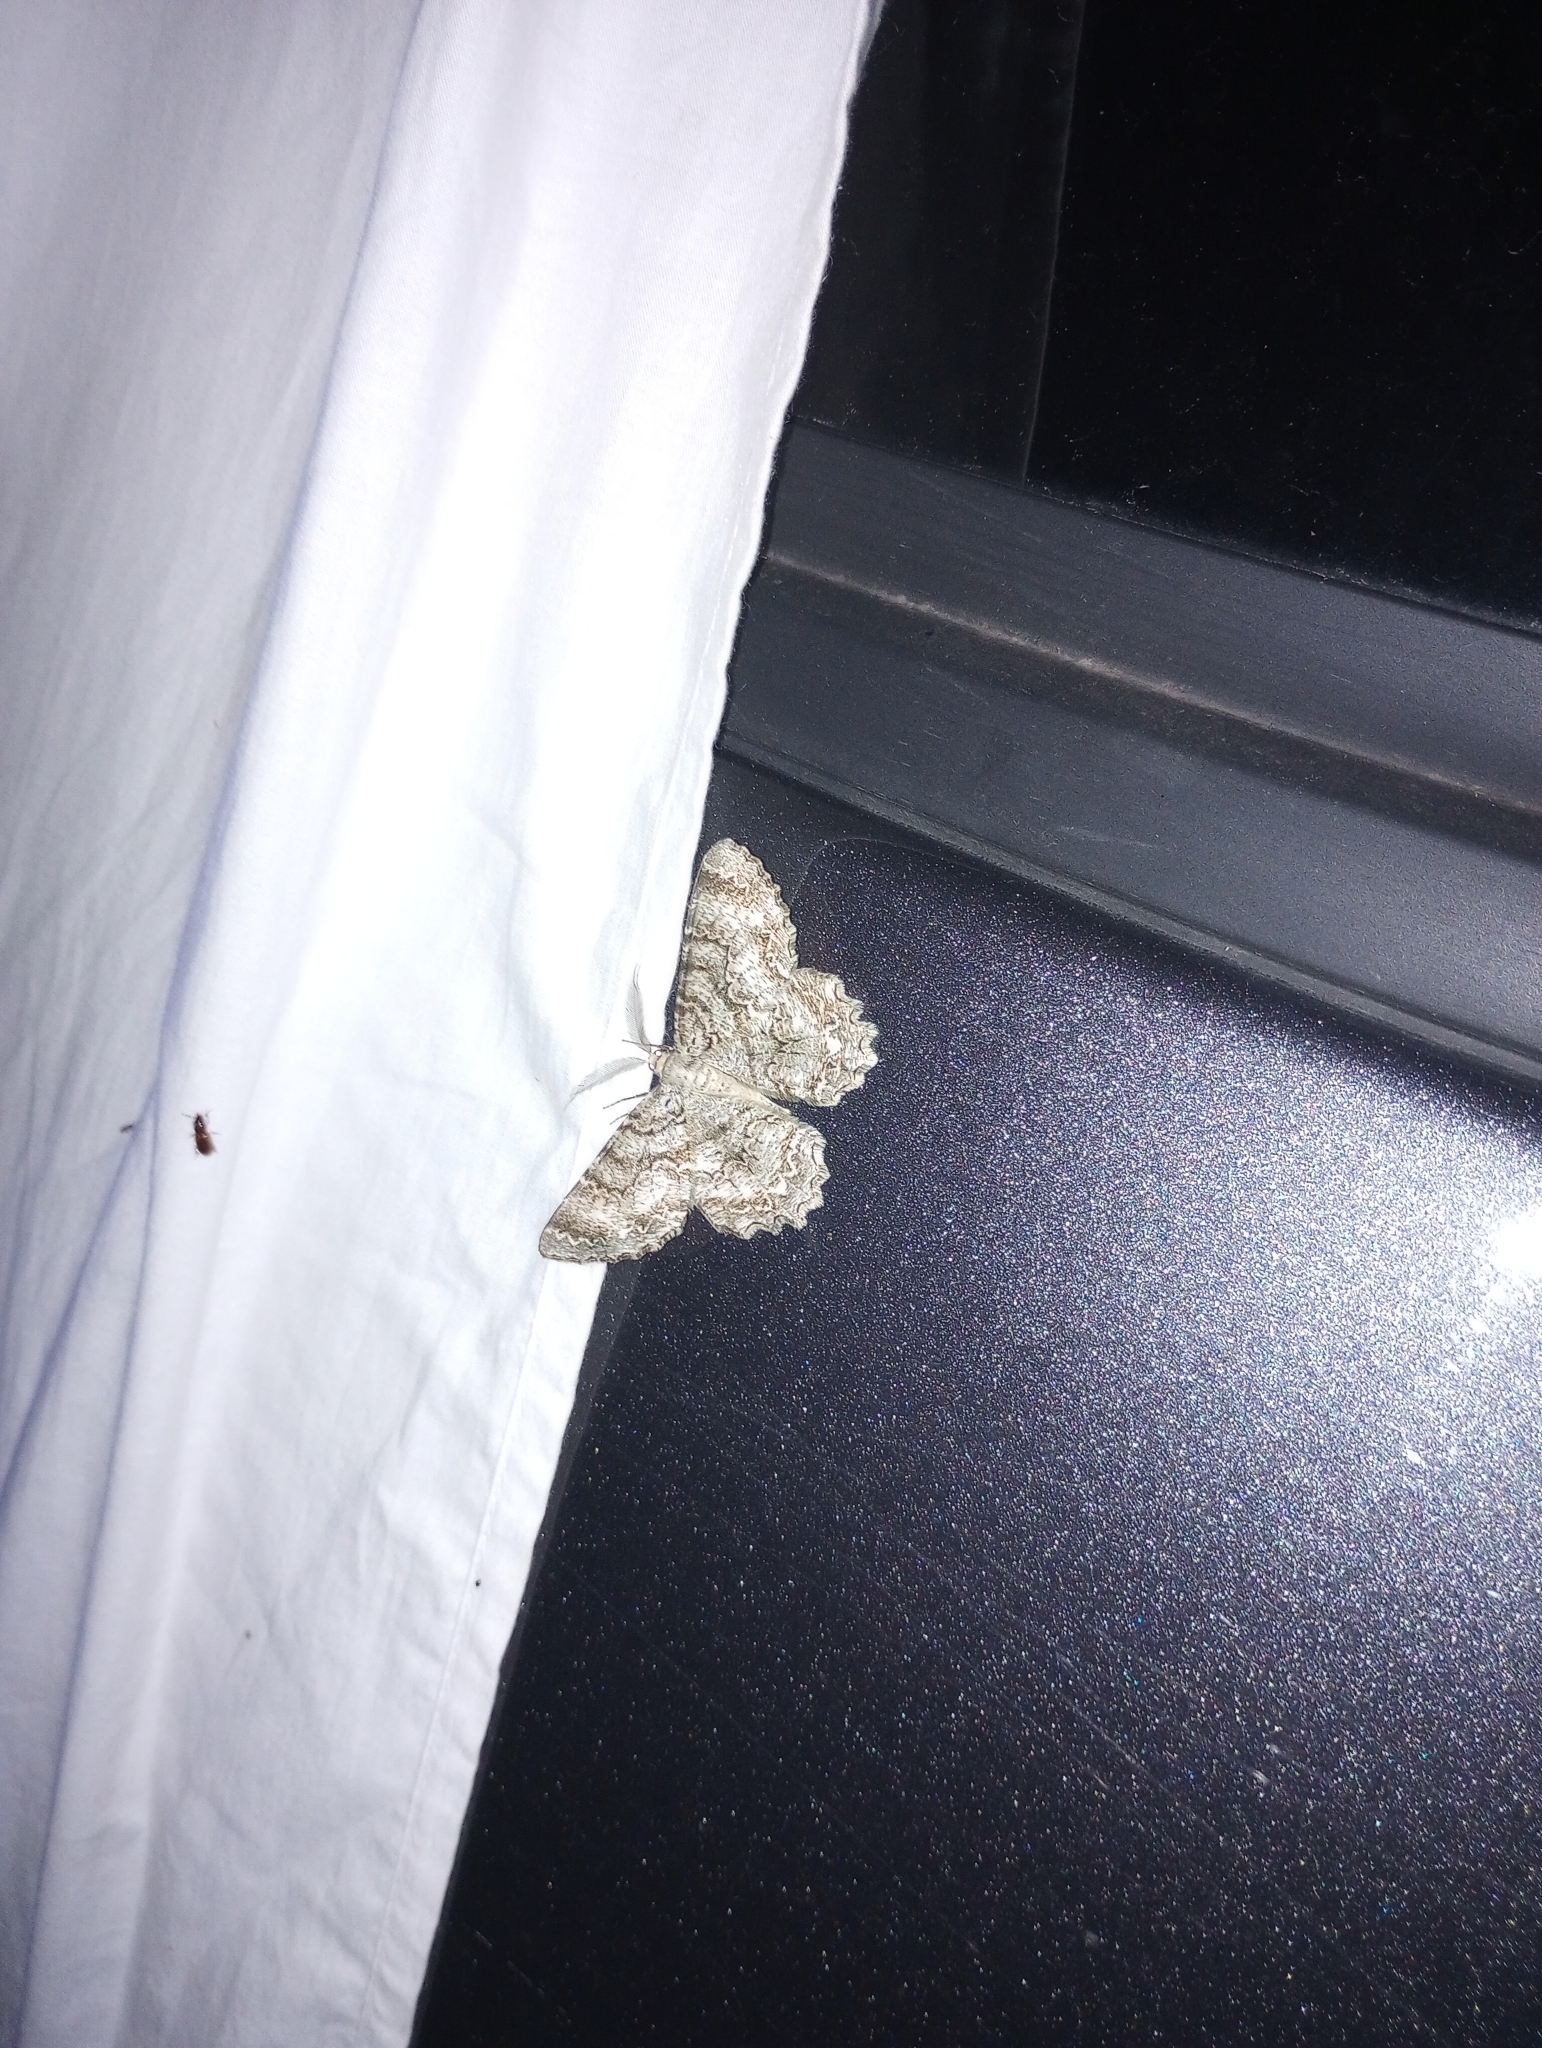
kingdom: Animalia
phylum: Arthropoda
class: Insecta
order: Lepidoptera
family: Geometridae
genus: Epimecis
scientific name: Epimecis hortaria
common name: Tulip-tree beauty
